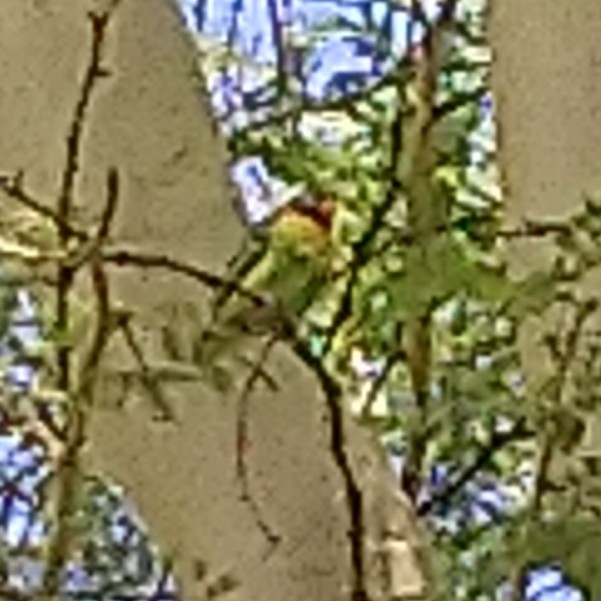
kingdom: Animalia
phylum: Chordata
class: Aves
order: Psittaciformes
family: Psittacidae
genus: Agapornis
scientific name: Agapornis nigrigenis
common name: Black-cheeked lovebird
